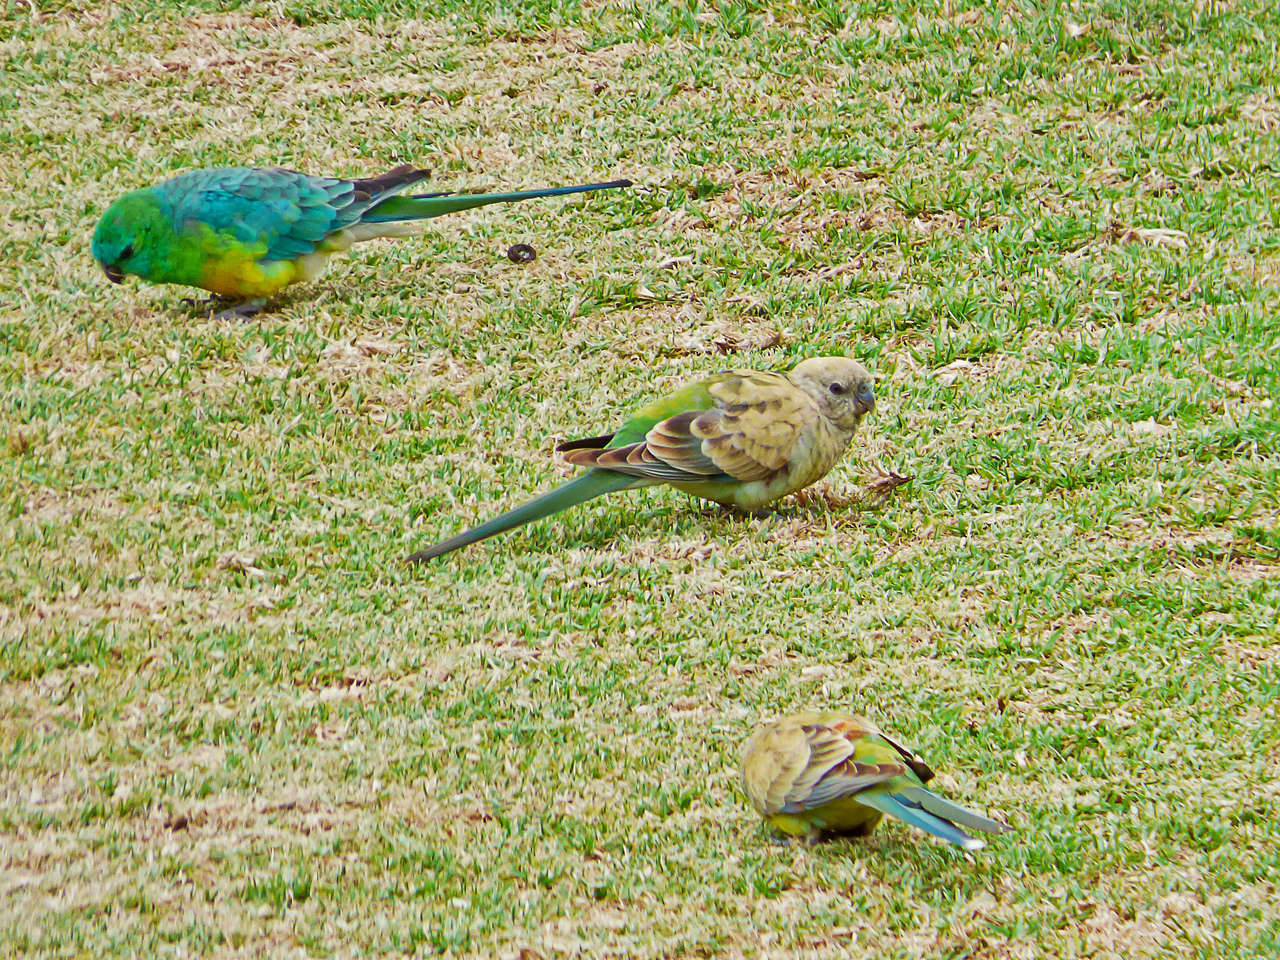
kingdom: Animalia
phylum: Chordata
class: Aves
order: Psittaciformes
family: Psittacidae
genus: Psephotus
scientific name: Psephotus haematonotus
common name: Red-rumped parrot
